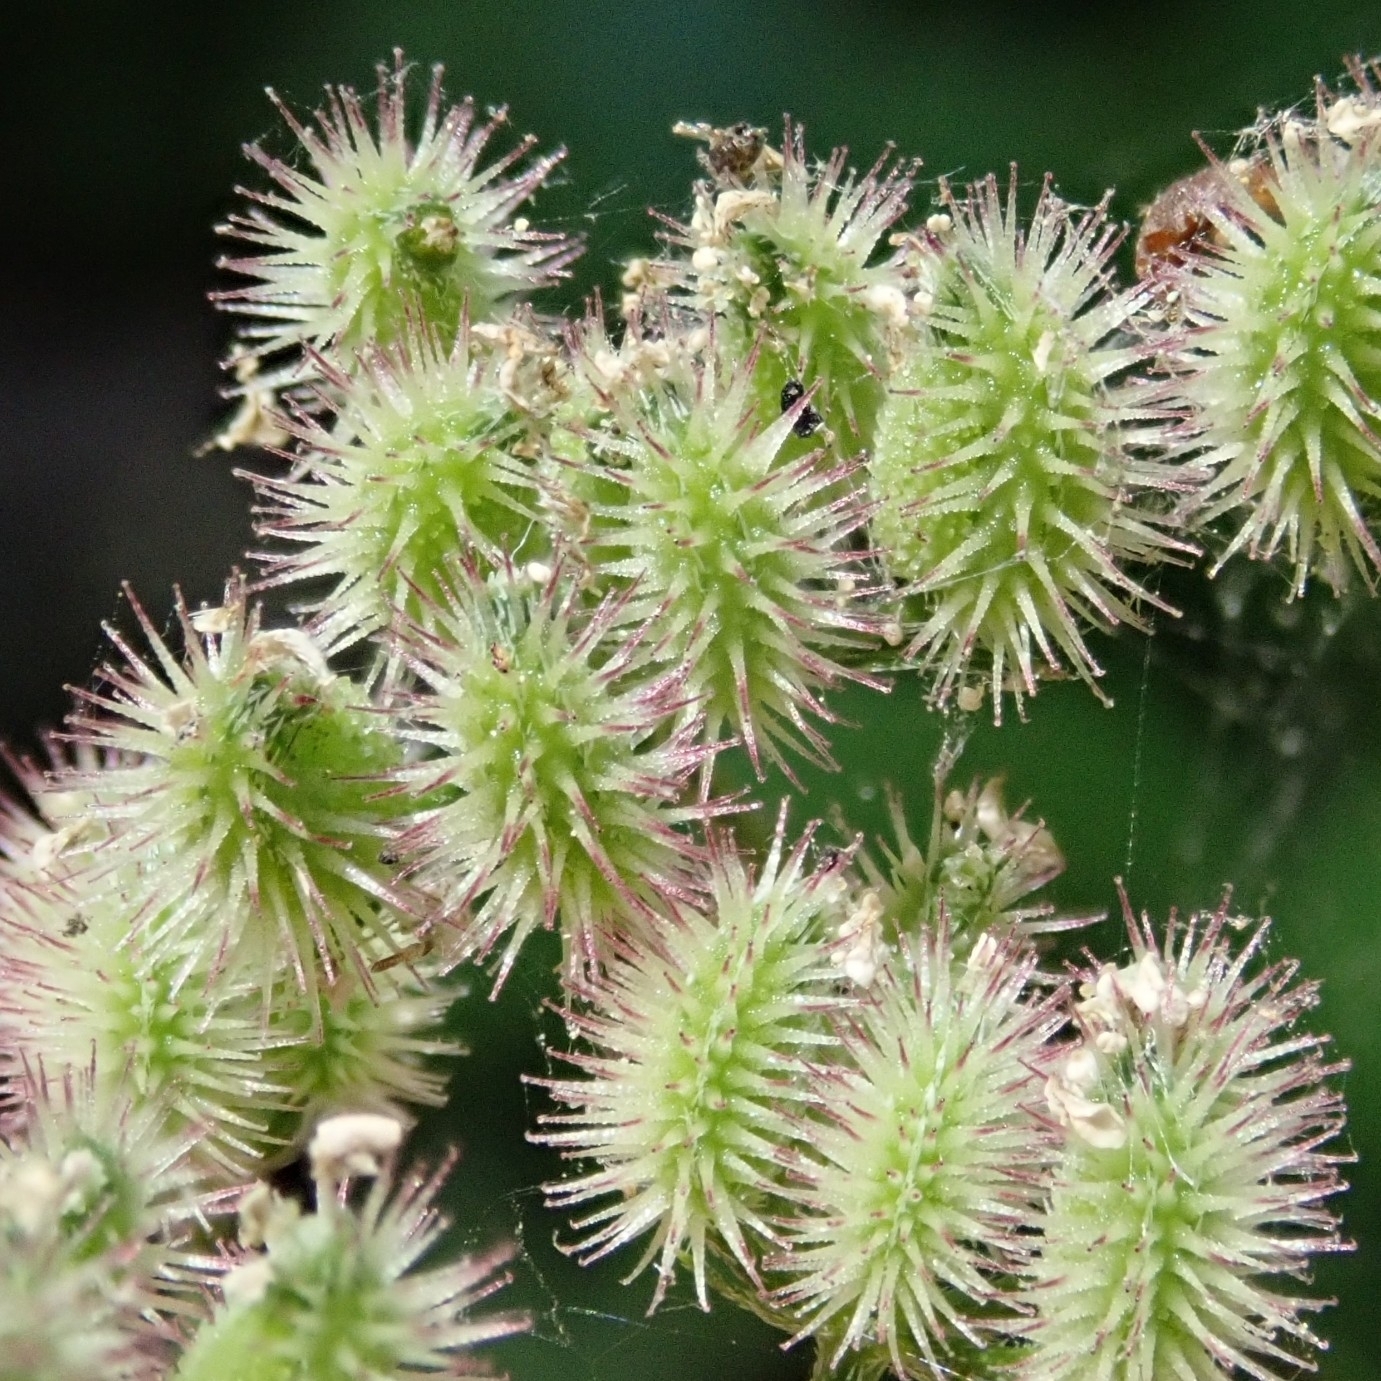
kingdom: Plantae
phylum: Tracheophyta
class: Magnoliopsida
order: Apiales
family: Apiaceae
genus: Torilis
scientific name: Torilis nodosa
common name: Knotted hedge-parsley
